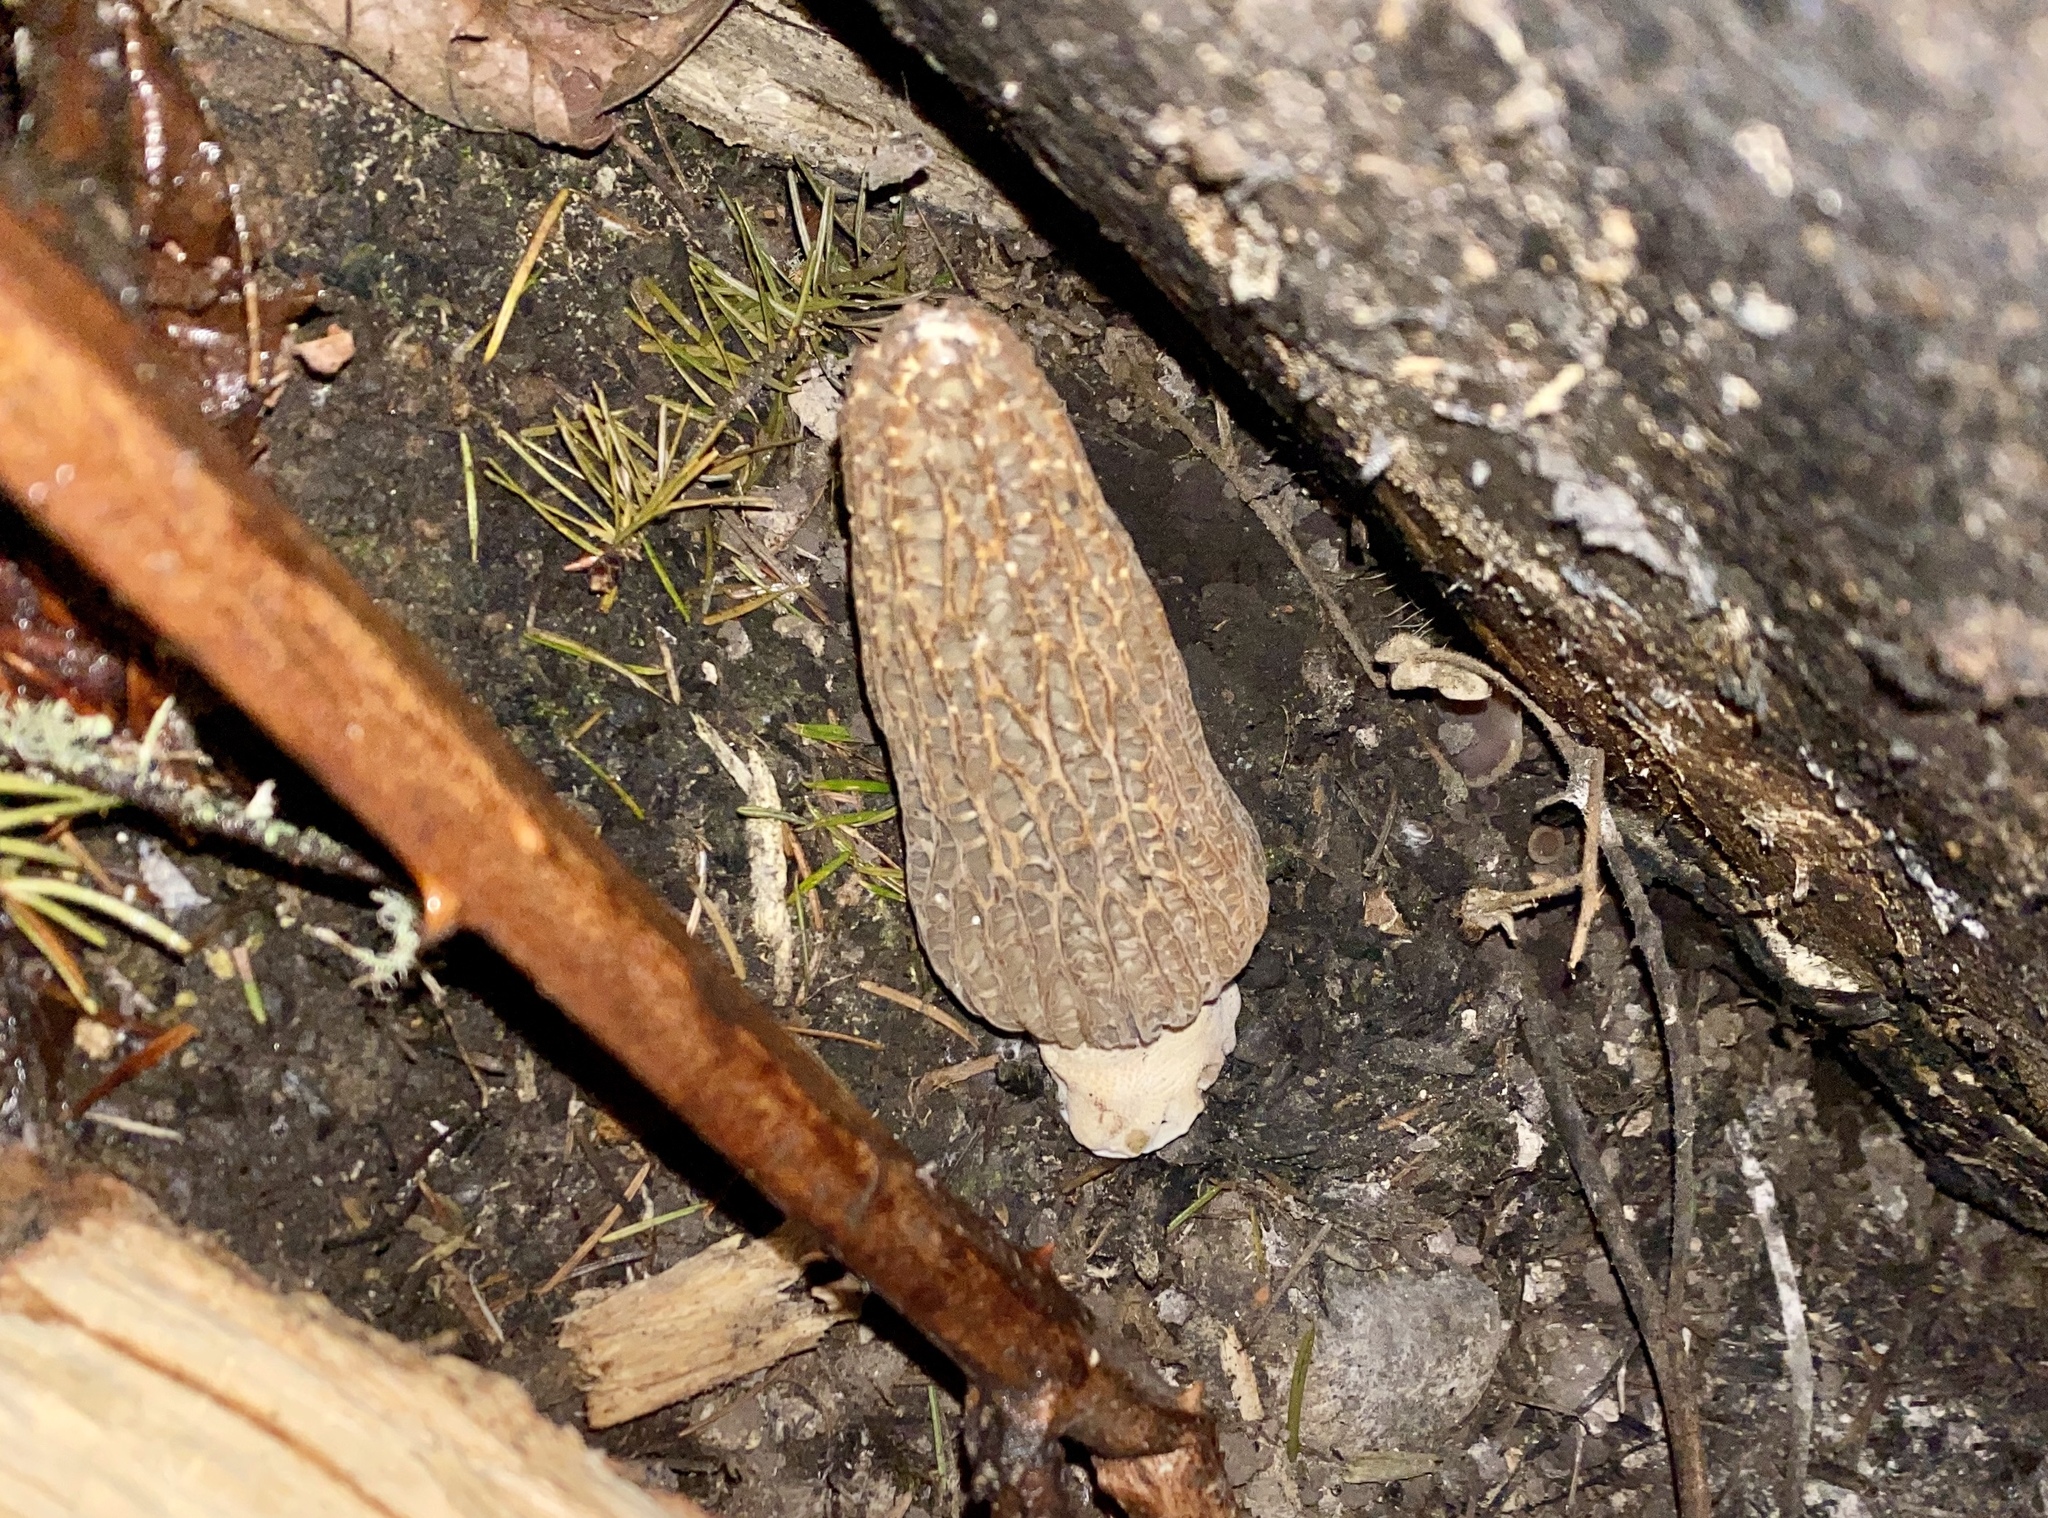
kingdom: Fungi
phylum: Ascomycota
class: Pezizomycetes
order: Pezizales
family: Morchellaceae
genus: Morchella
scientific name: Morchella importuna
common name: Landscaping black morel
